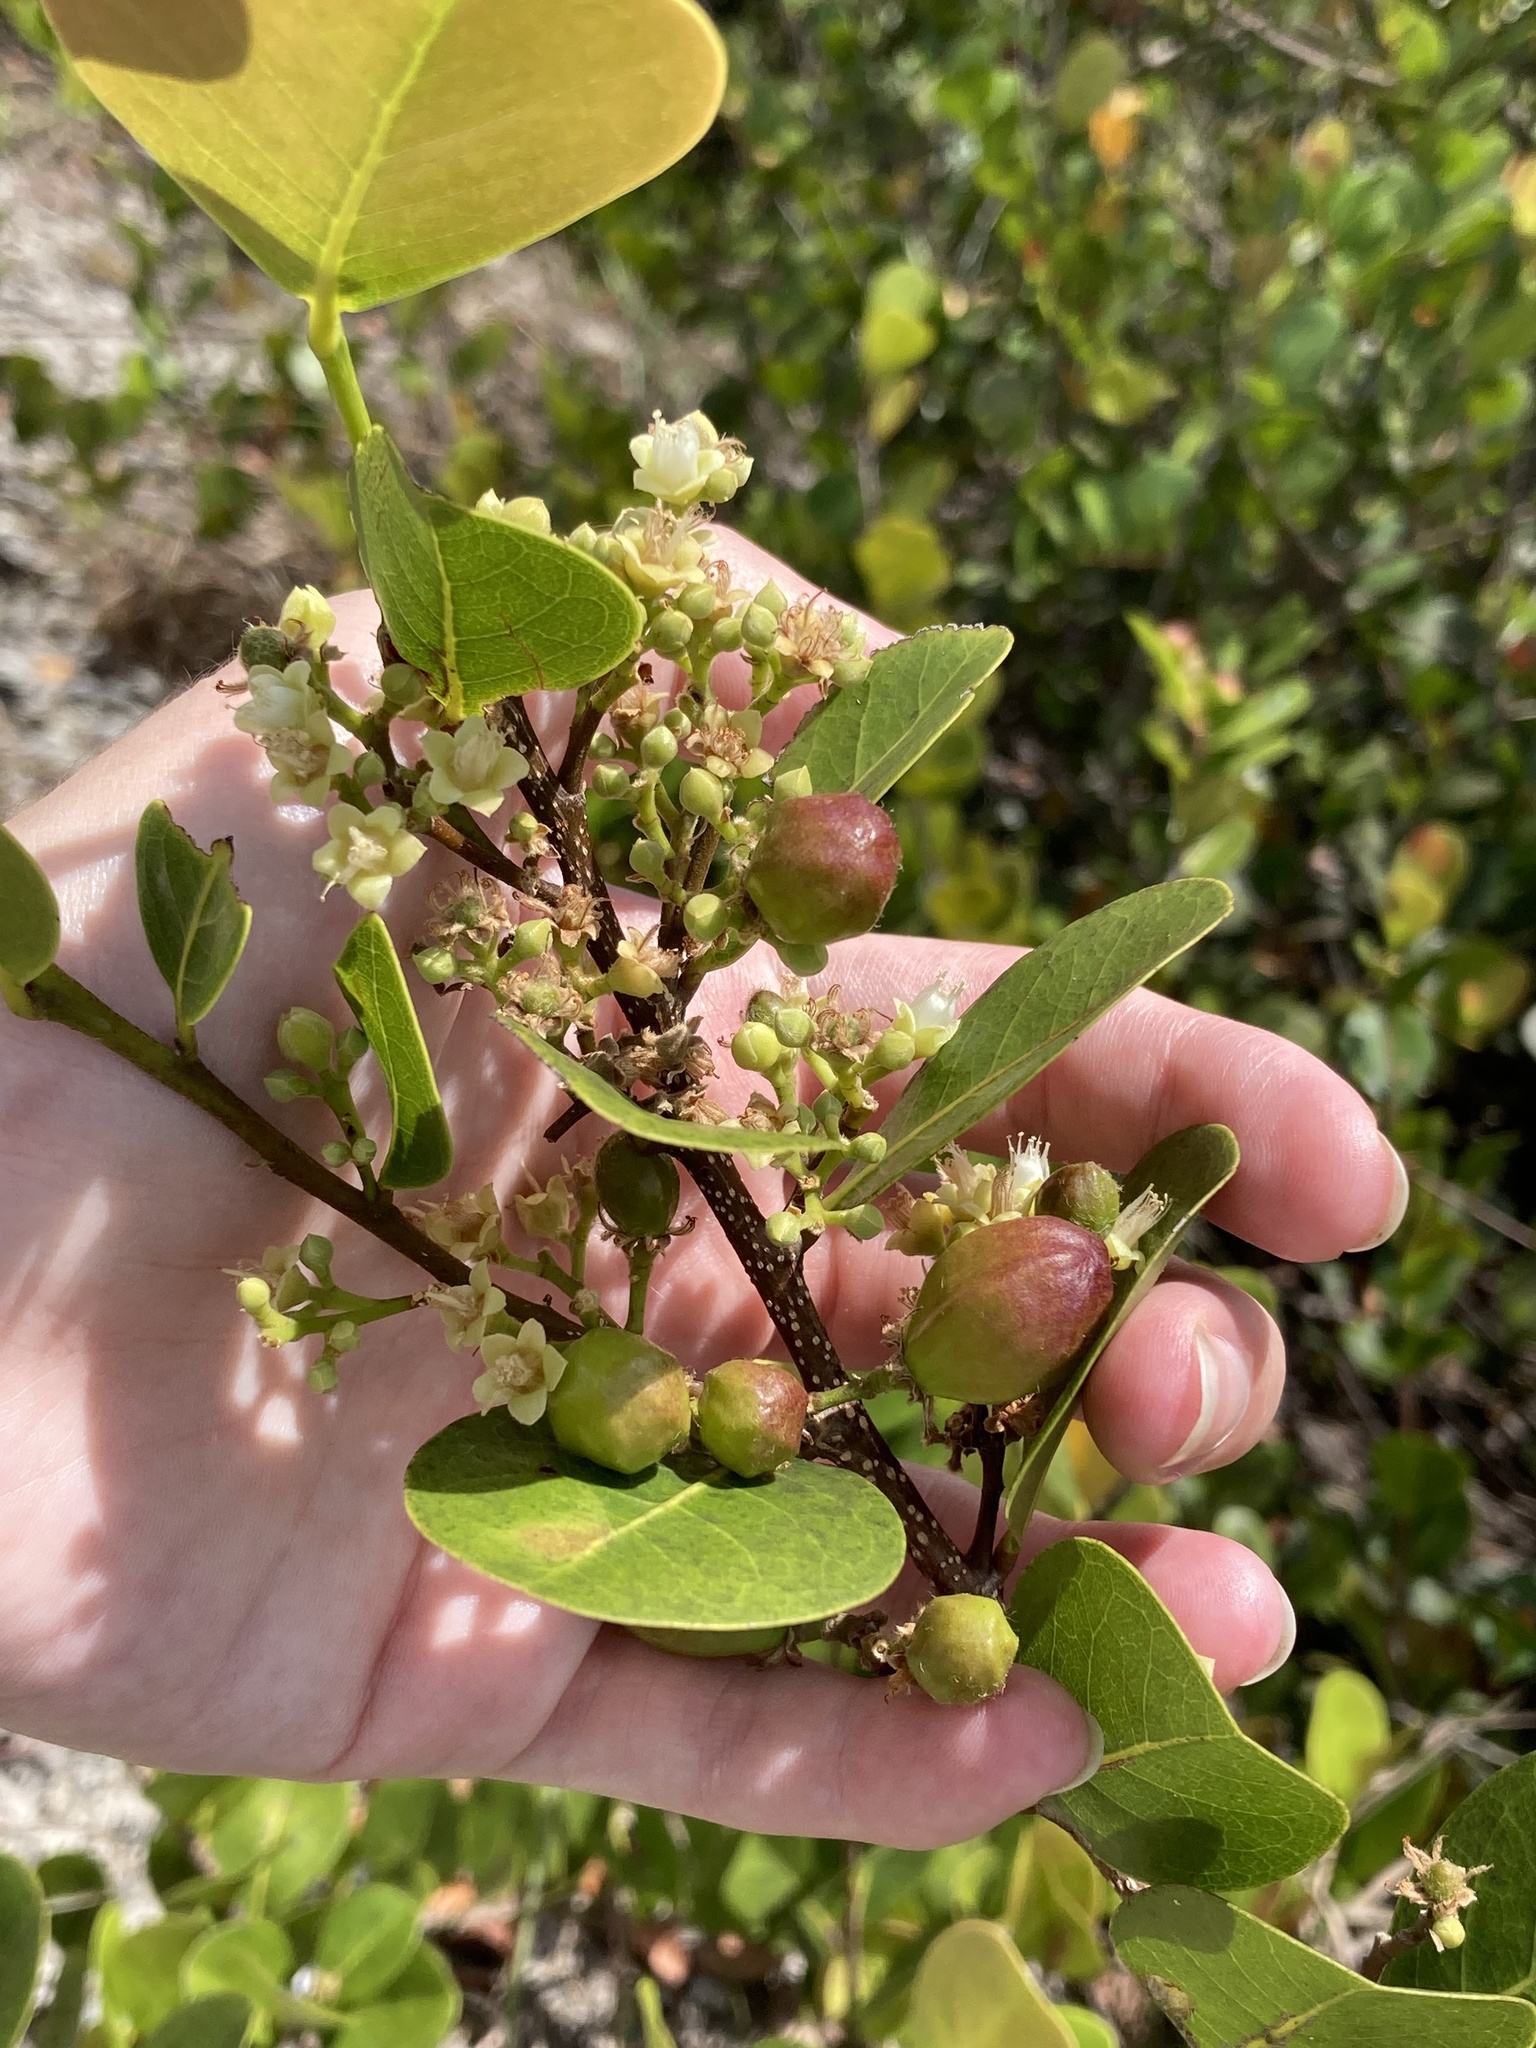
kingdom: Plantae
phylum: Tracheophyta
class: Magnoliopsida
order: Malpighiales
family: Chrysobalanaceae
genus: Chrysobalanus
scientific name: Chrysobalanus icaco
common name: Coco plum
